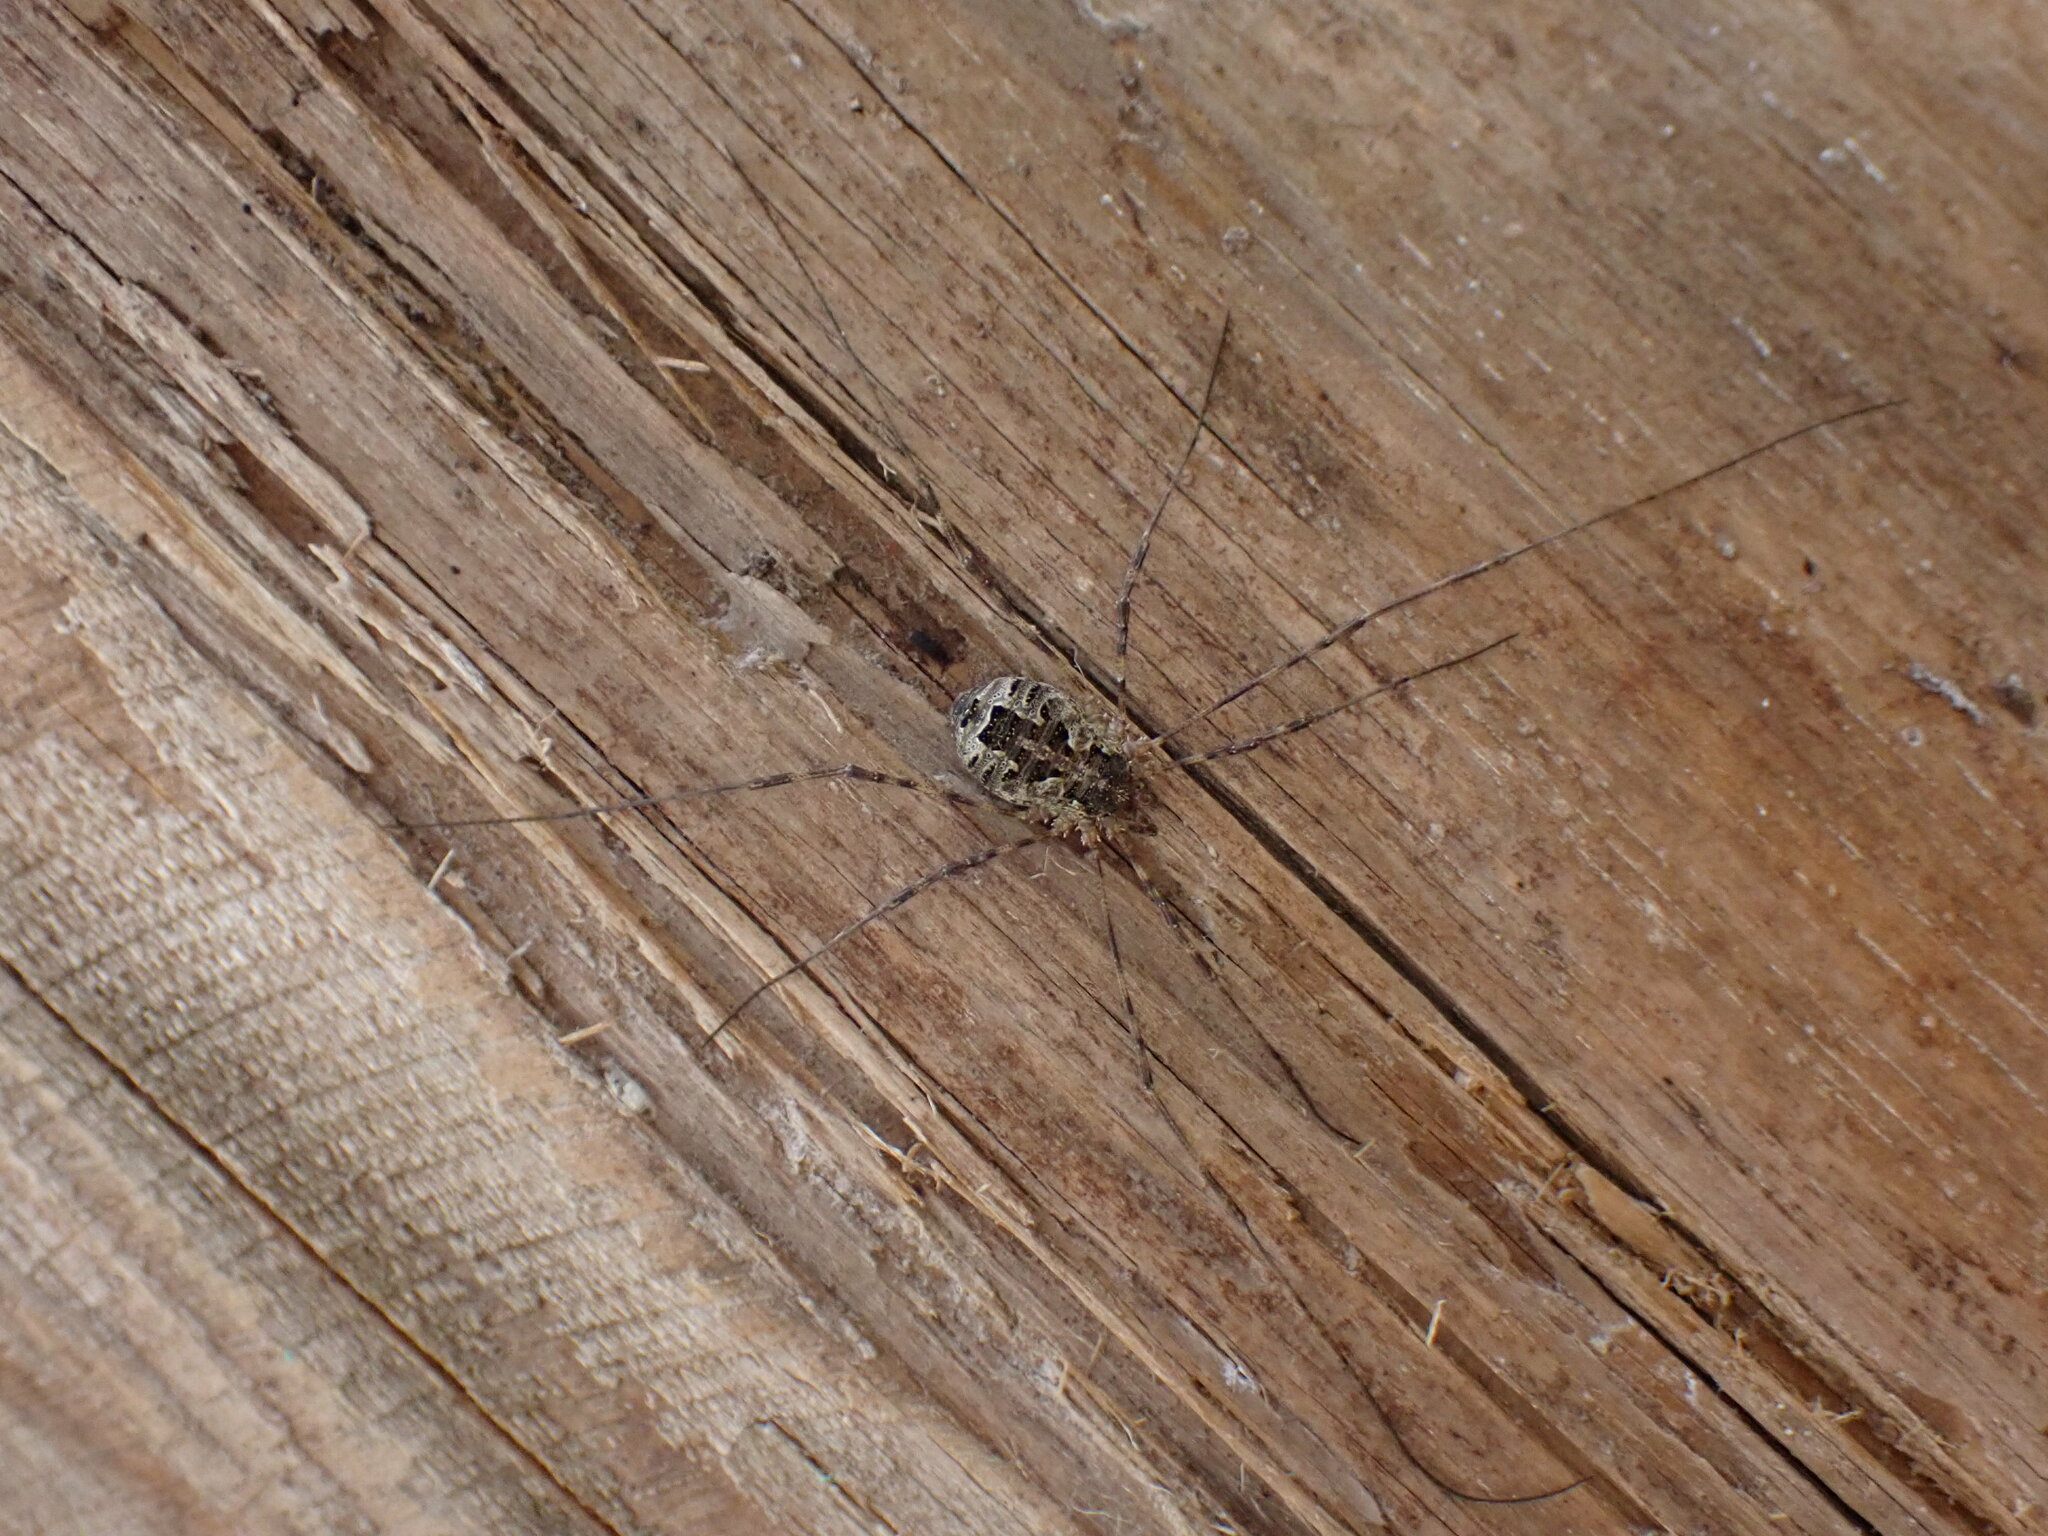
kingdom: Animalia
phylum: Arthropoda
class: Arachnida
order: Opiliones
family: Phalangiidae
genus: Lacinius
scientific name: Lacinius dentiger
